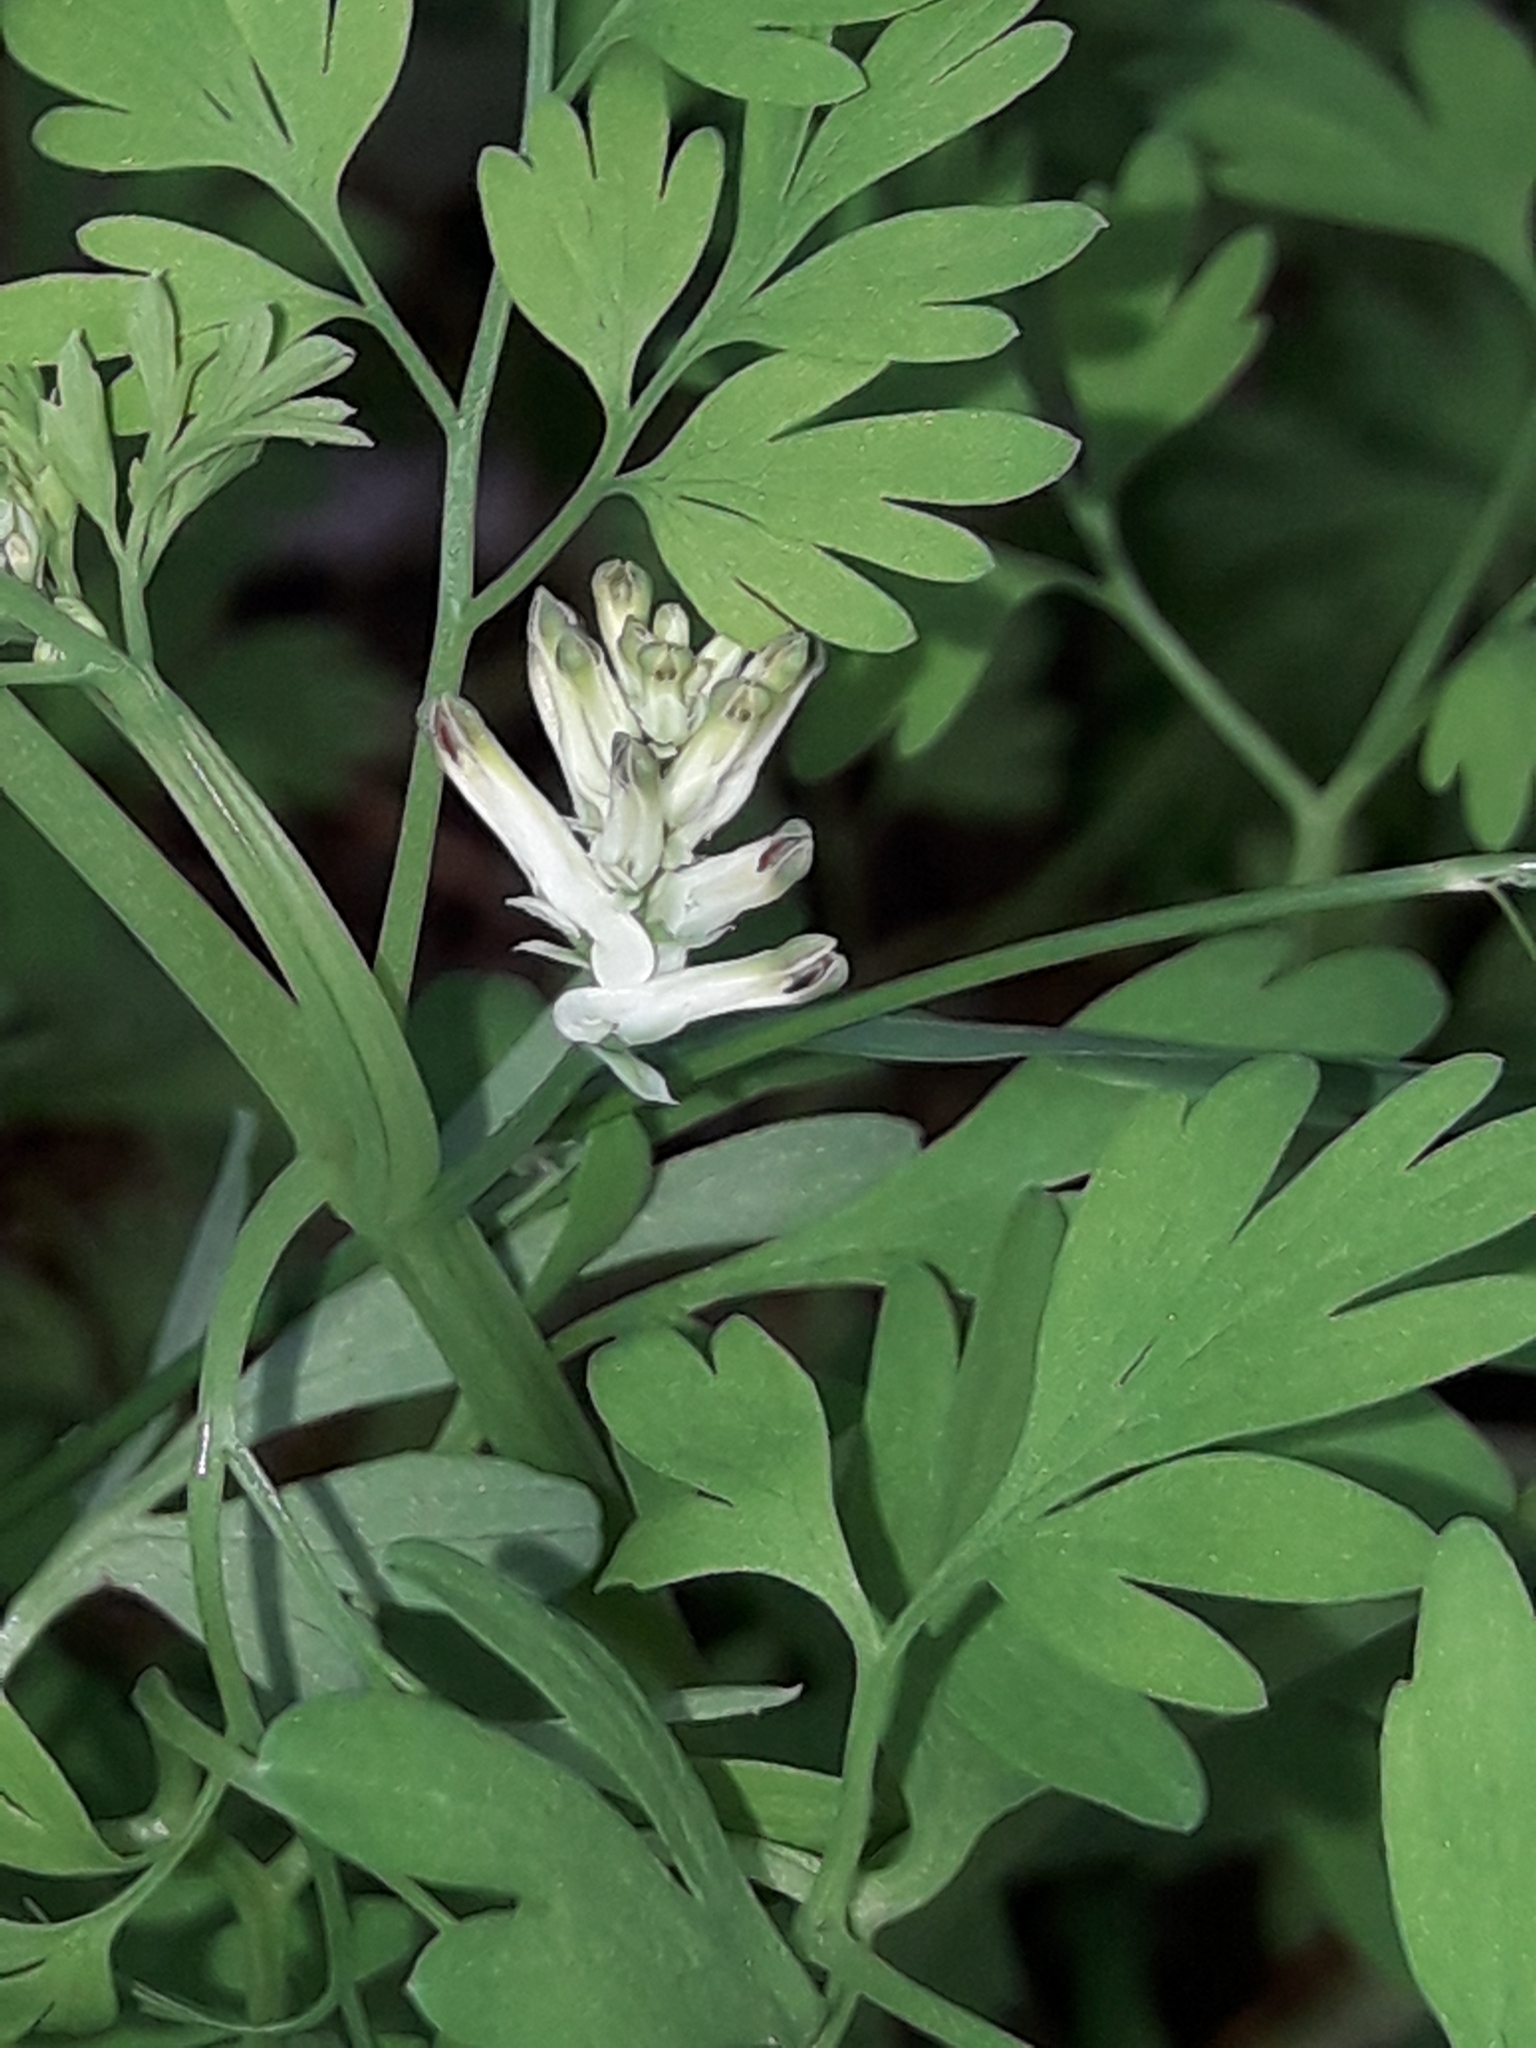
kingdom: Plantae
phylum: Tracheophyta
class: Magnoliopsida
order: Ranunculales
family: Papaveraceae
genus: Fumaria
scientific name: Fumaria capreolata
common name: White ramping-fumitory
